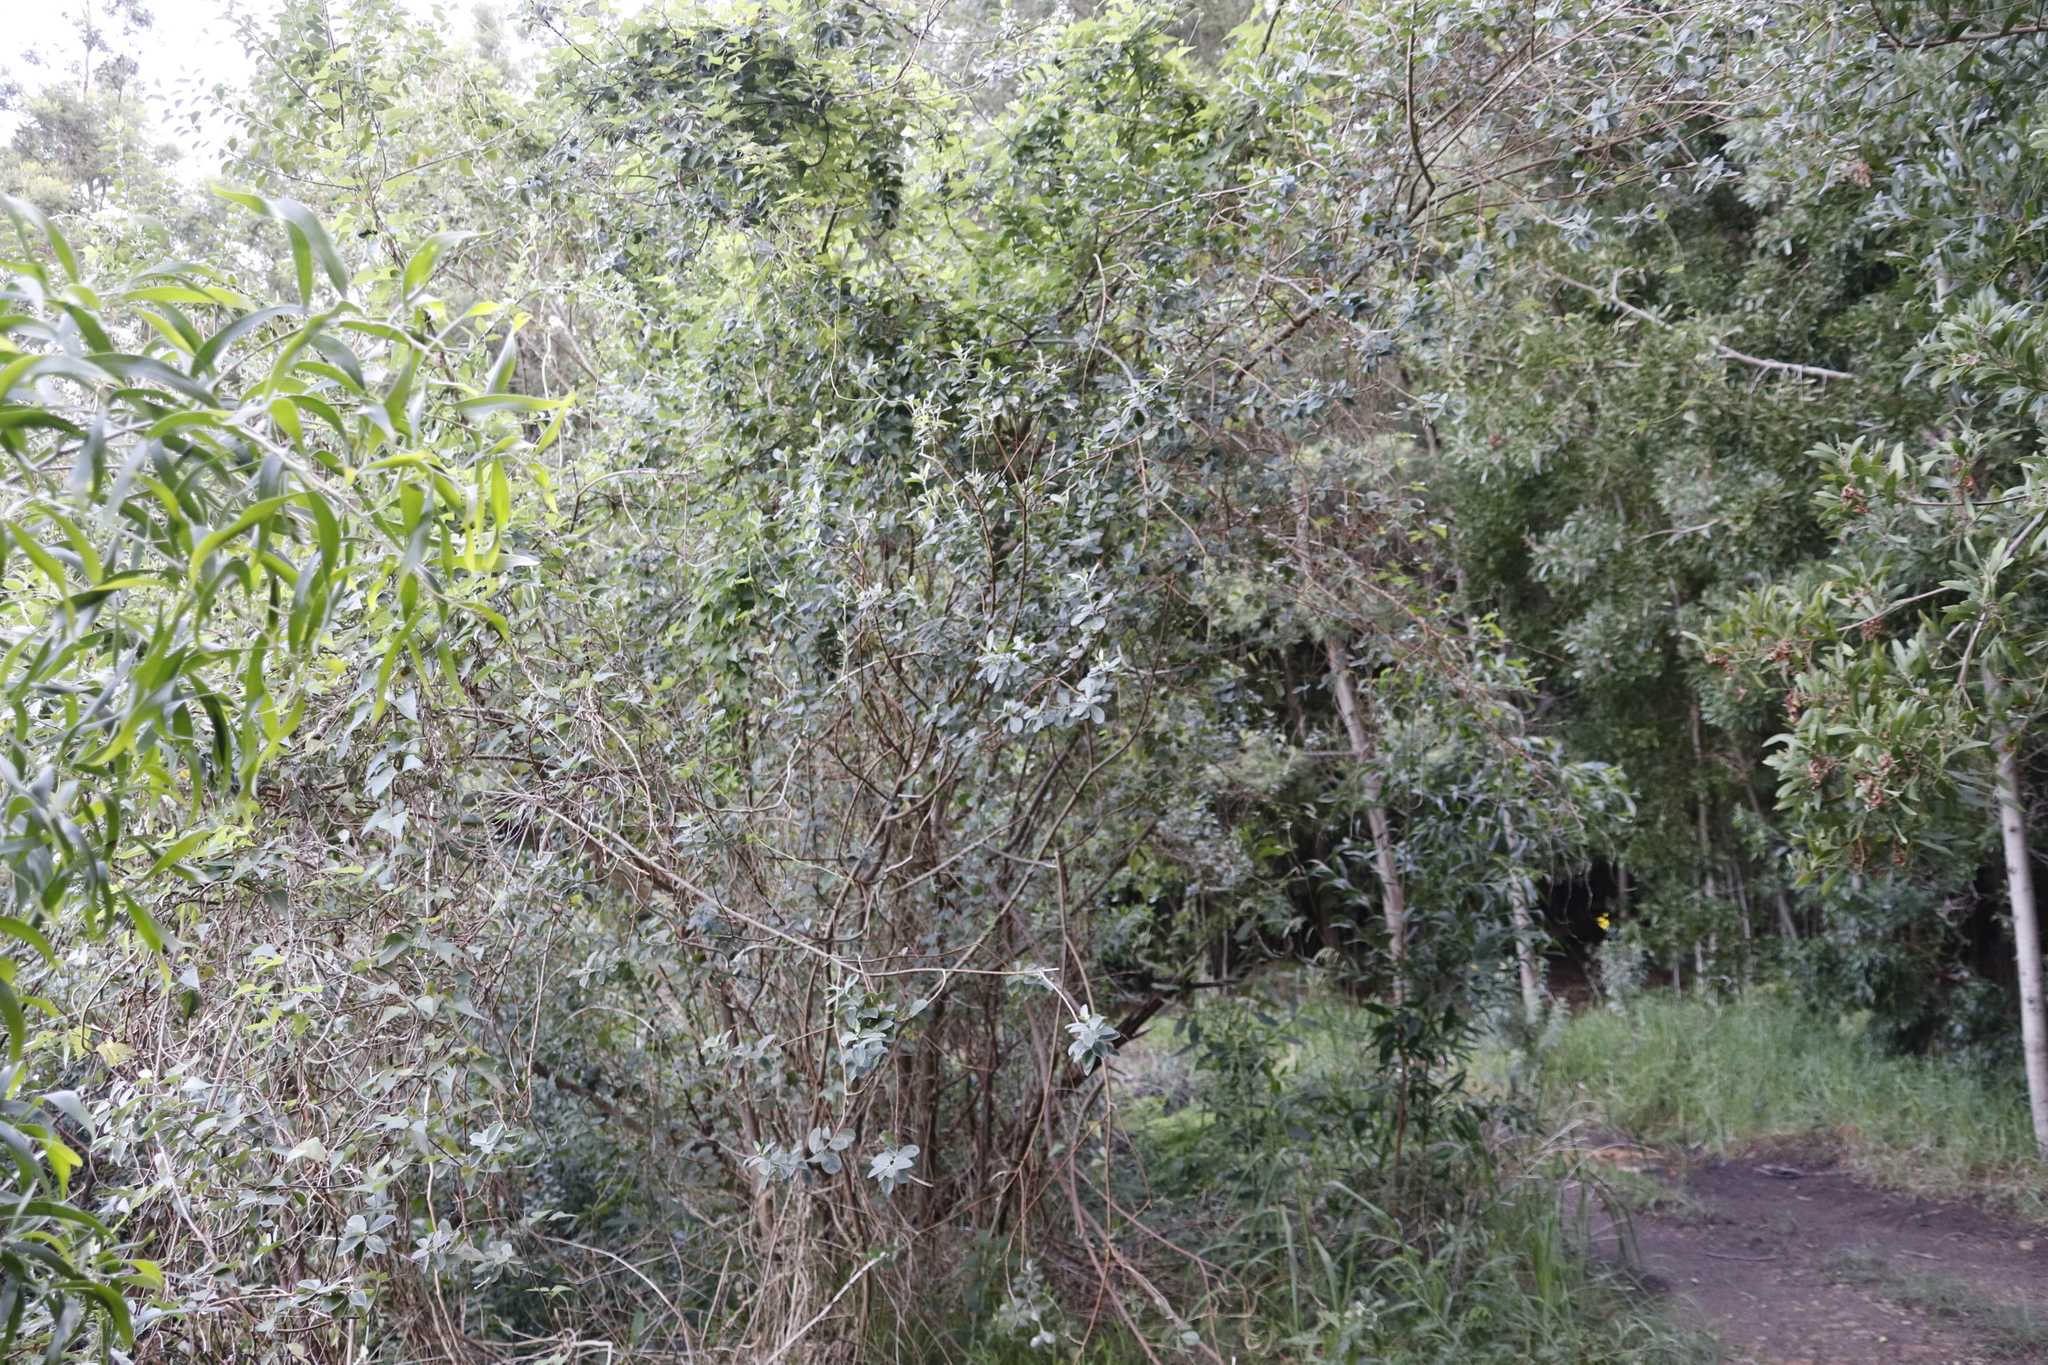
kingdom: Plantae
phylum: Tracheophyta
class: Magnoliopsida
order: Fabales
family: Fabaceae
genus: Podalyria
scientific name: Podalyria calyptrata
